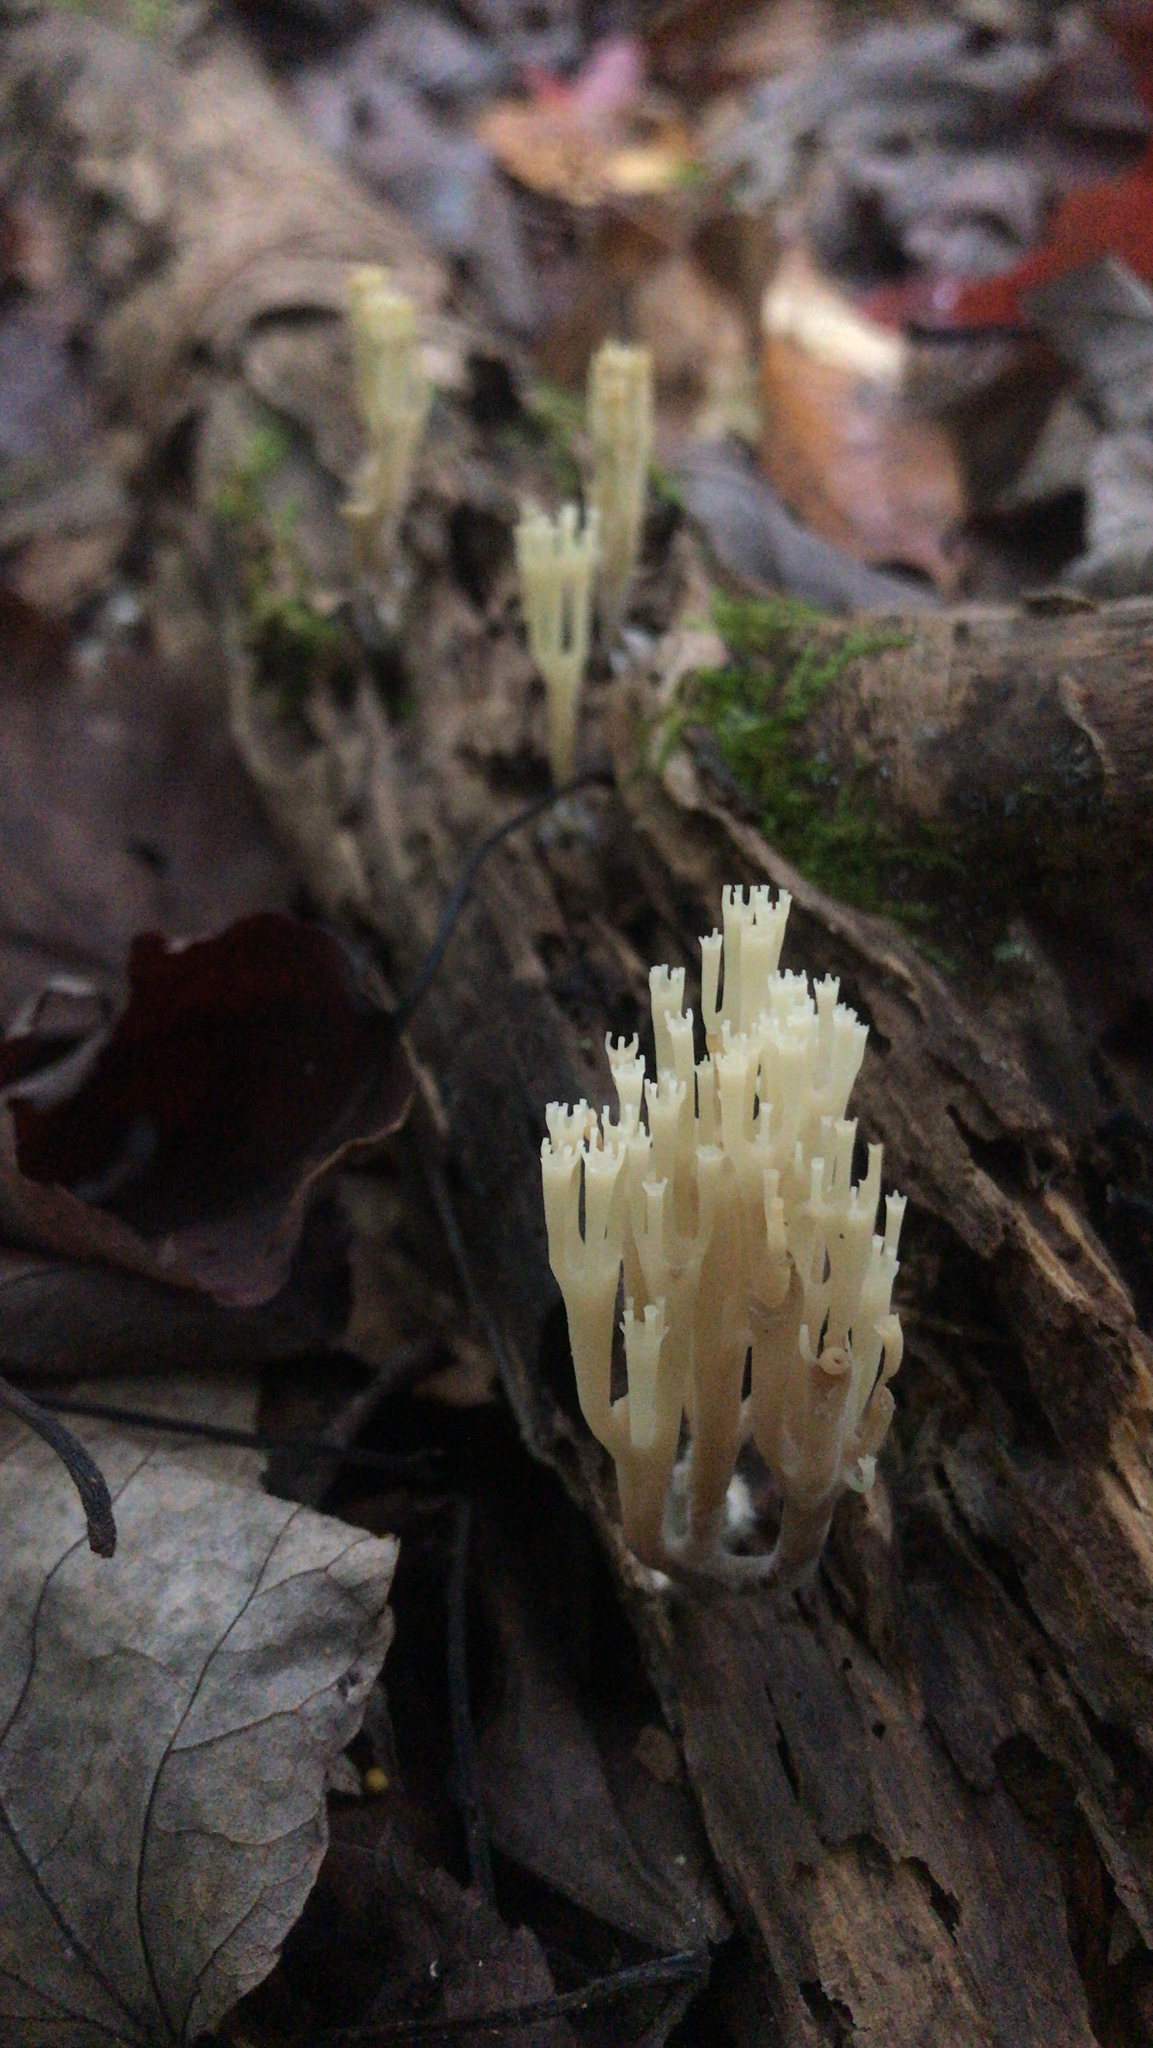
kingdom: Fungi
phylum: Basidiomycota
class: Agaricomycetes
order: Russulales
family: Auriscalpiaceae
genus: Artomyces
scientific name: Artomyces pyxidatus
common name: Crown-tipped coral fungus
